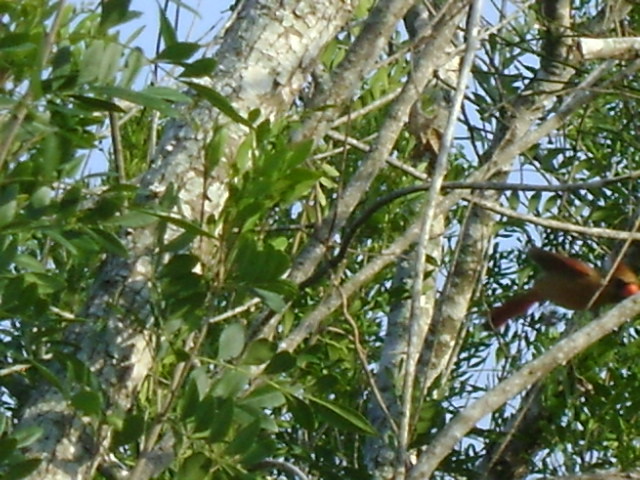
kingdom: Animalia
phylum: Chordata
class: Aves
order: Passeriformes
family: Cardinalidae
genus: Cardinalis
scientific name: Cardinalis cardinalis
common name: Northern cardinal
